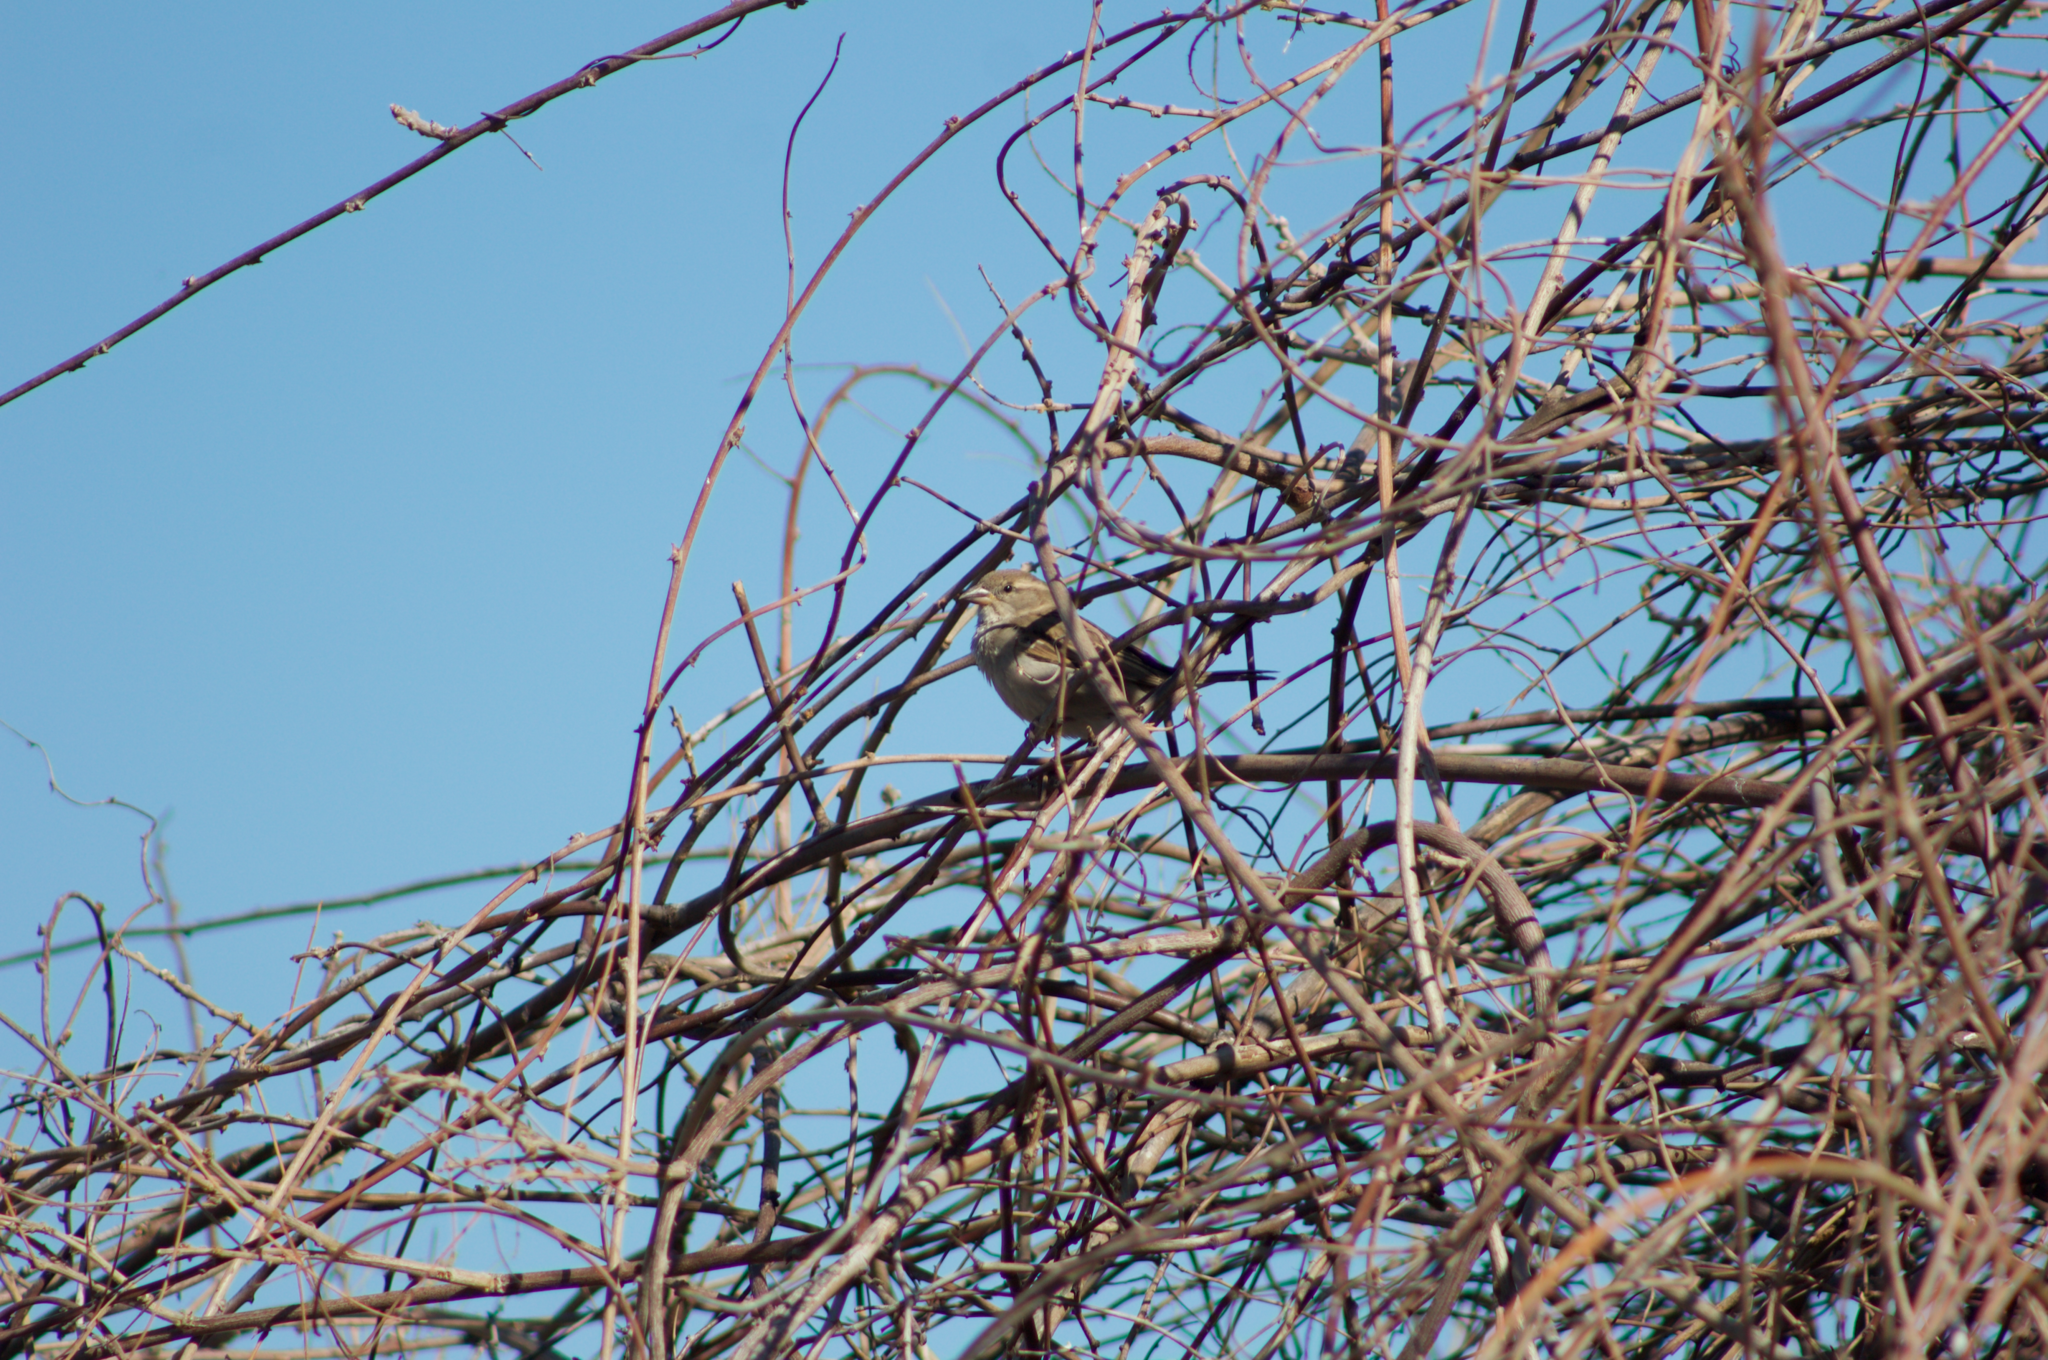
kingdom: Animalia
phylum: Chordata
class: Aves
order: Passeriformes
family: Passeridae
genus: Passer
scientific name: Passer domesticus
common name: House sparrow
